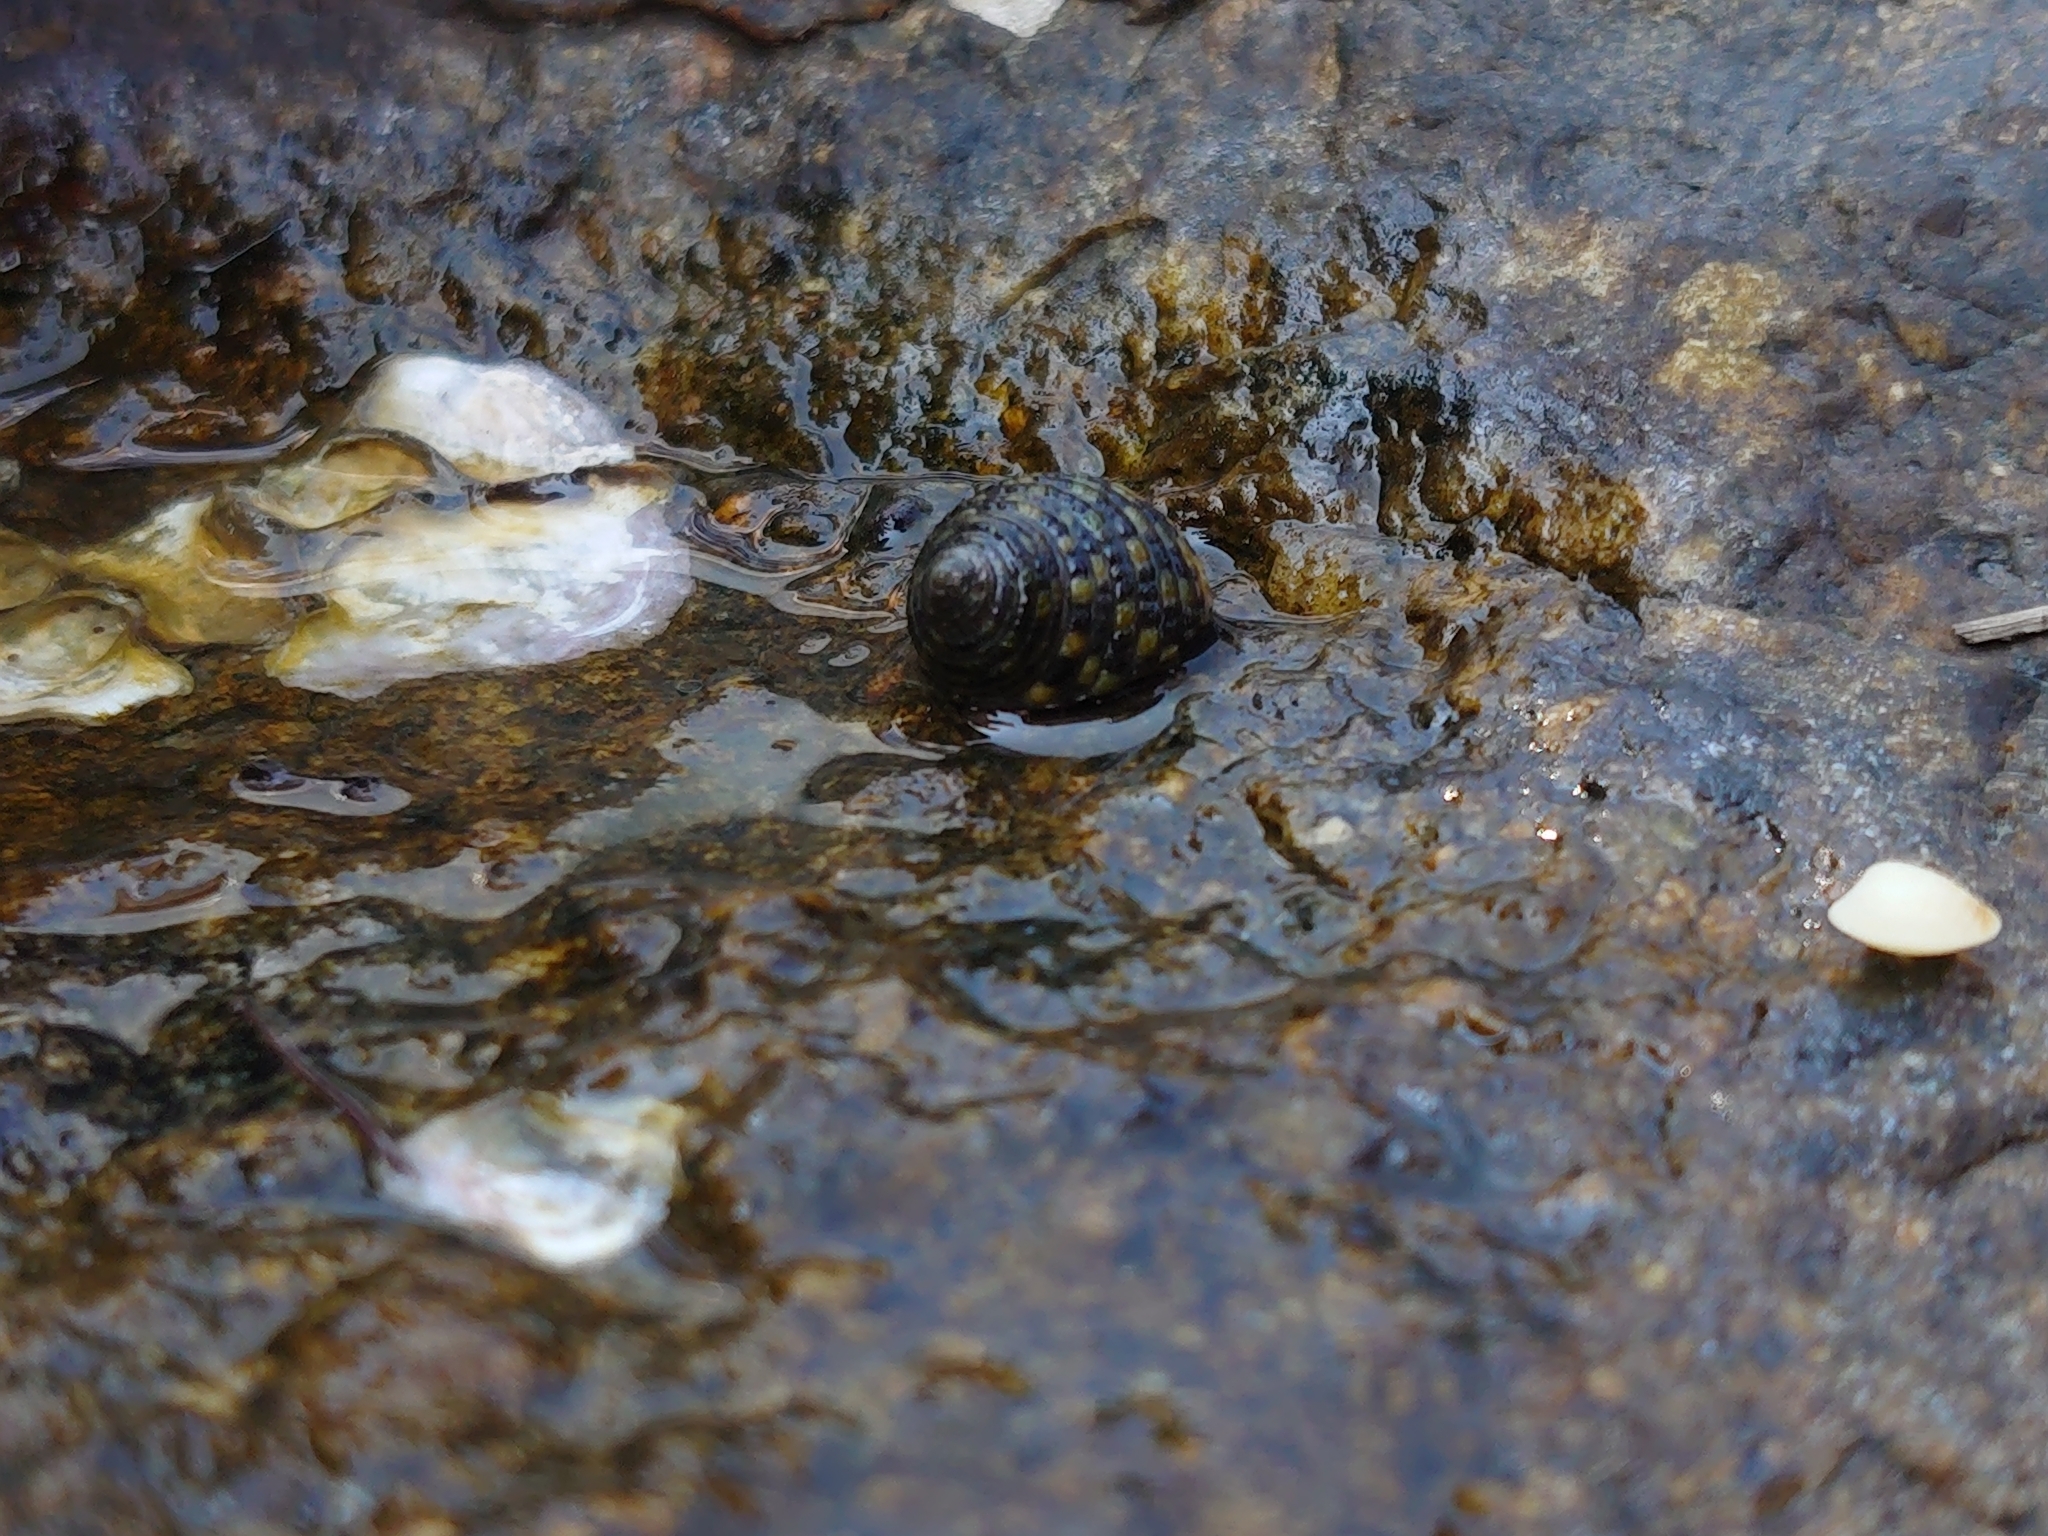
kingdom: Animalia
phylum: Mollusca
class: Gastropoda
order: Trochida
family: Trochidae
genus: Monodonta
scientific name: Monodonta labio
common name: Labio
